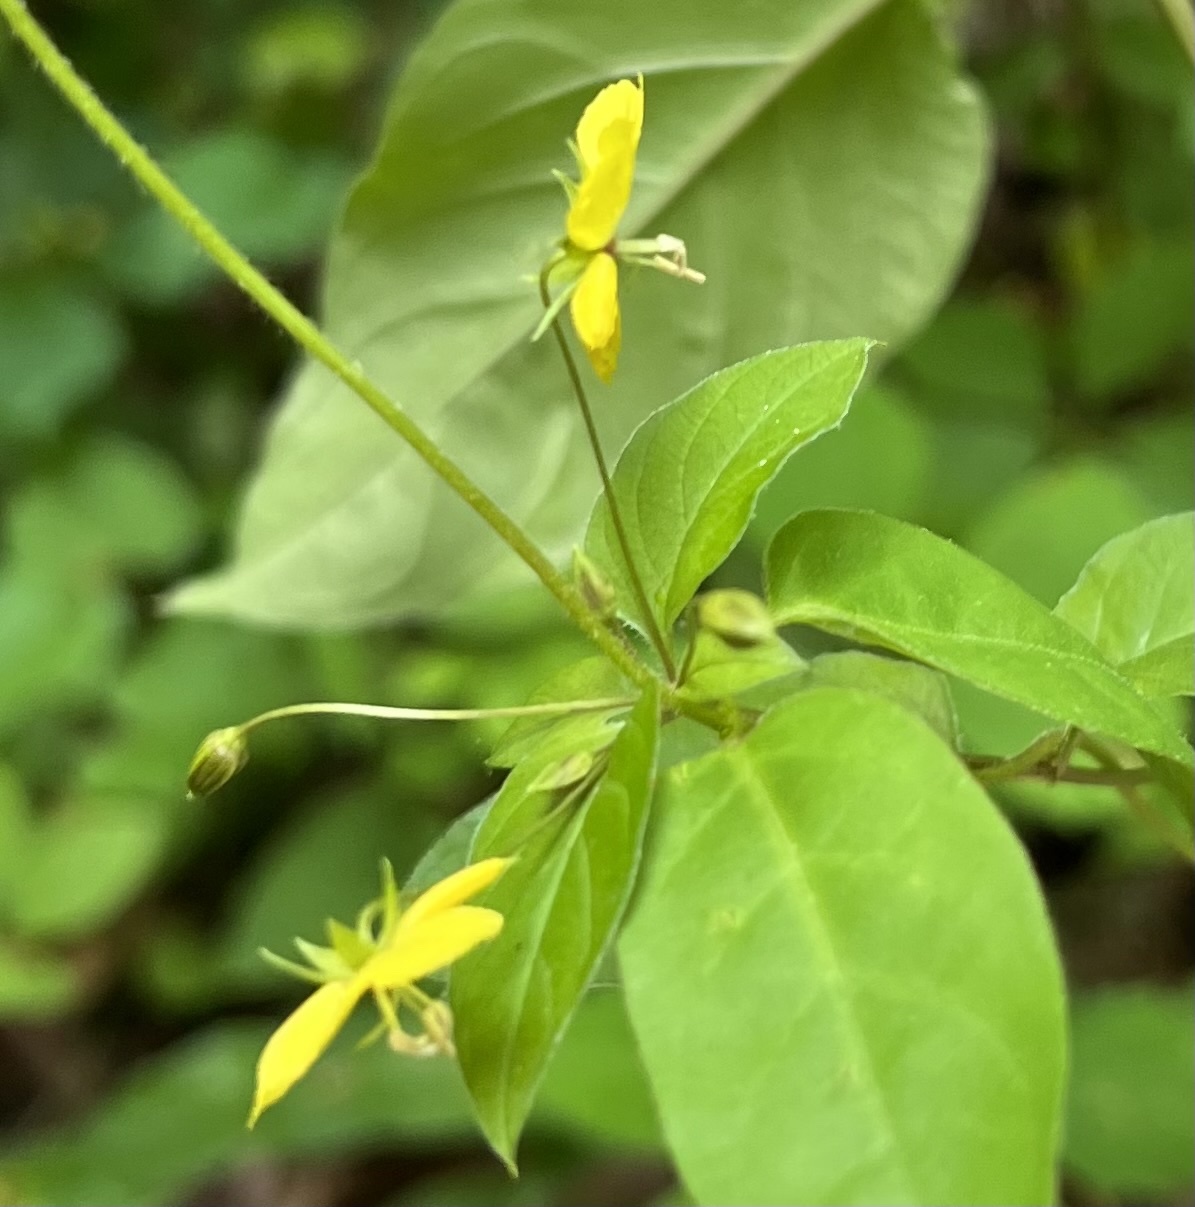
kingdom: Plantae
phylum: Tracheophyta
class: Magnoliopsida
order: Ericales
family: Primulaceae
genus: Lysimachia
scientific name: Lysimachia ciliata
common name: Fringed loosestrife
